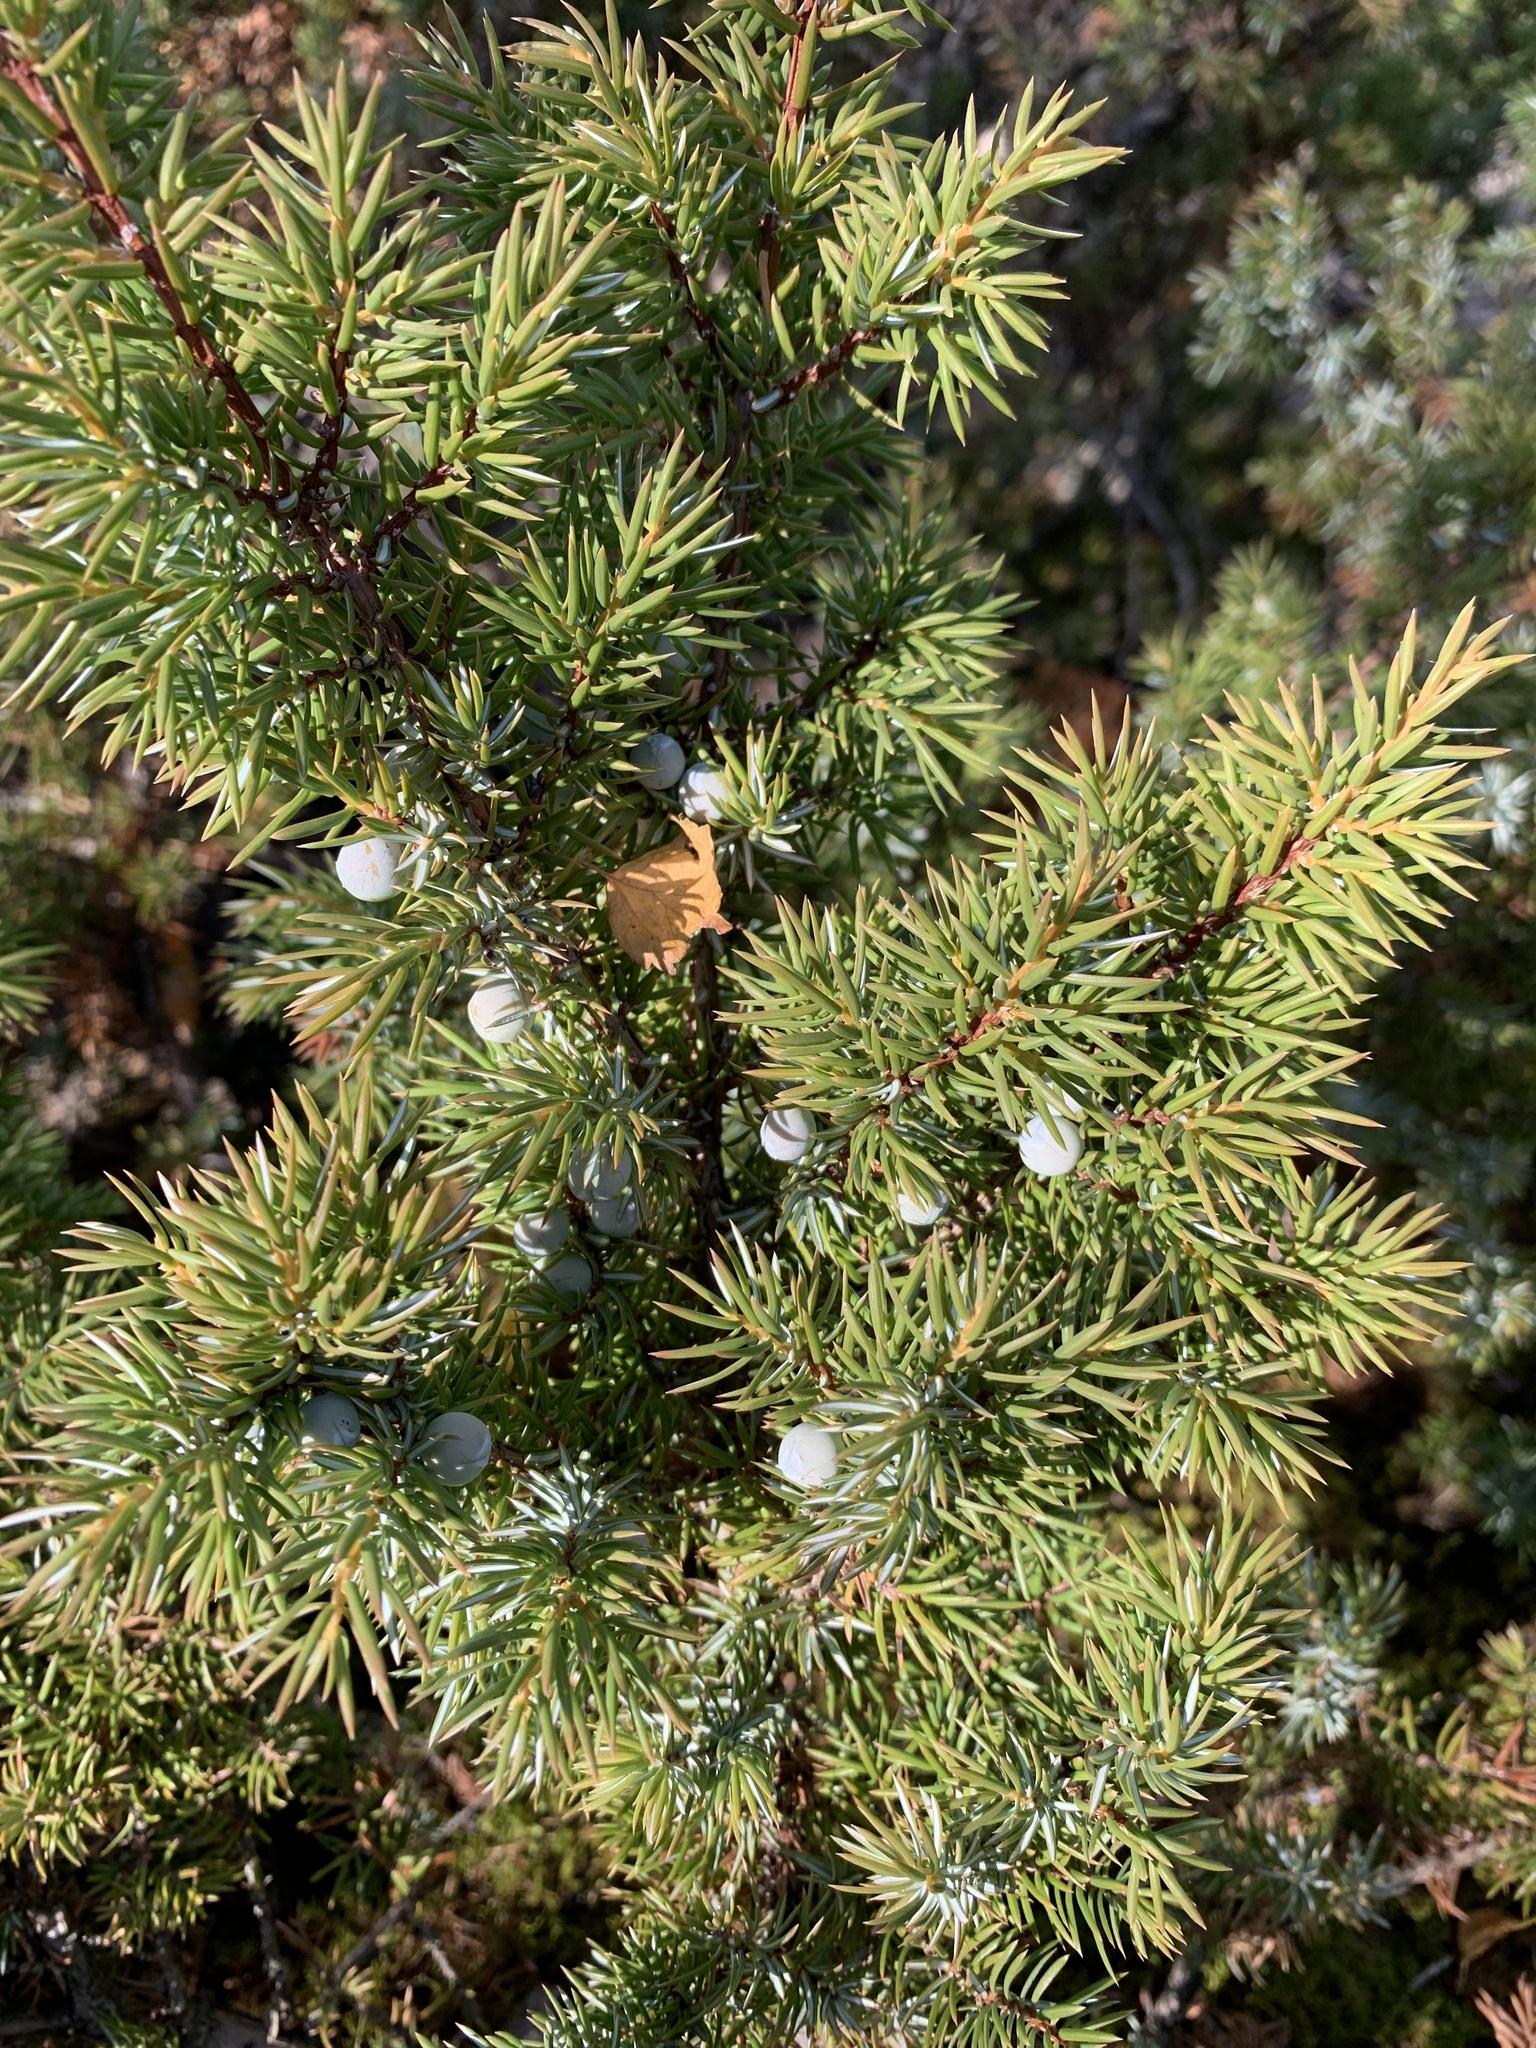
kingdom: Plantae
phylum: Tracheophyta
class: Pinopsida
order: Pinales
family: Cupressaceae
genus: Juniperus
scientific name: Juniperus communis
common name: Common juniper
